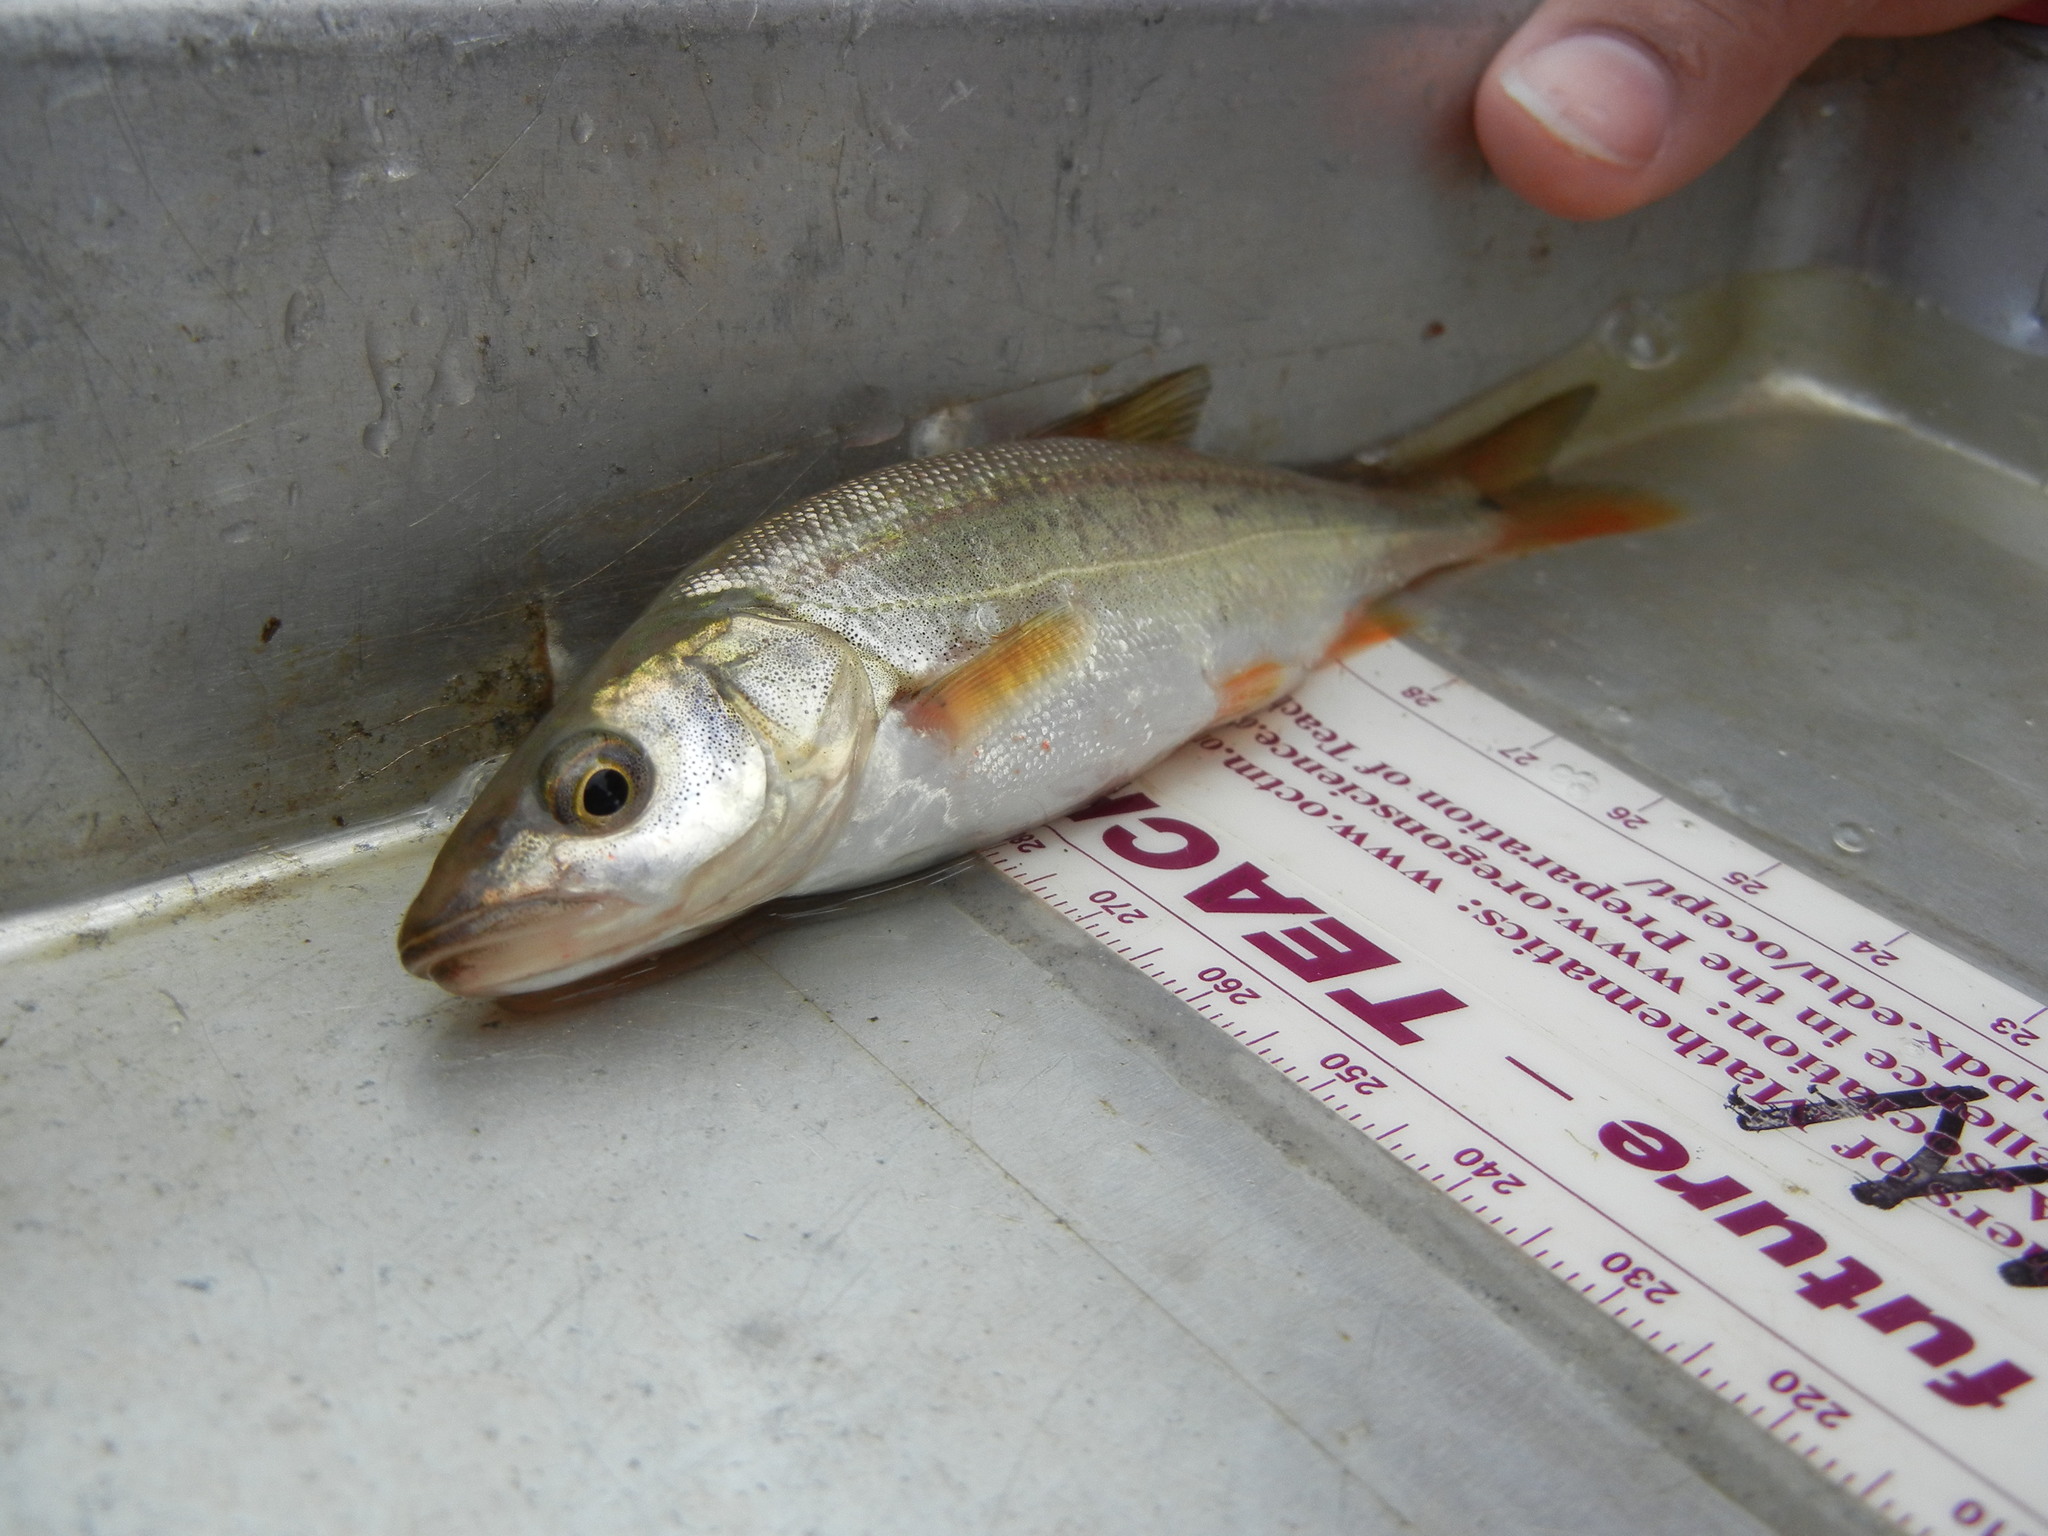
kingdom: Animalia
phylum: Chordata
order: Cypriniformes
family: Cyprinidae
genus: Ptychocheilus
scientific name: Ptychocheilus oregonensis
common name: Northern pikeminnow
